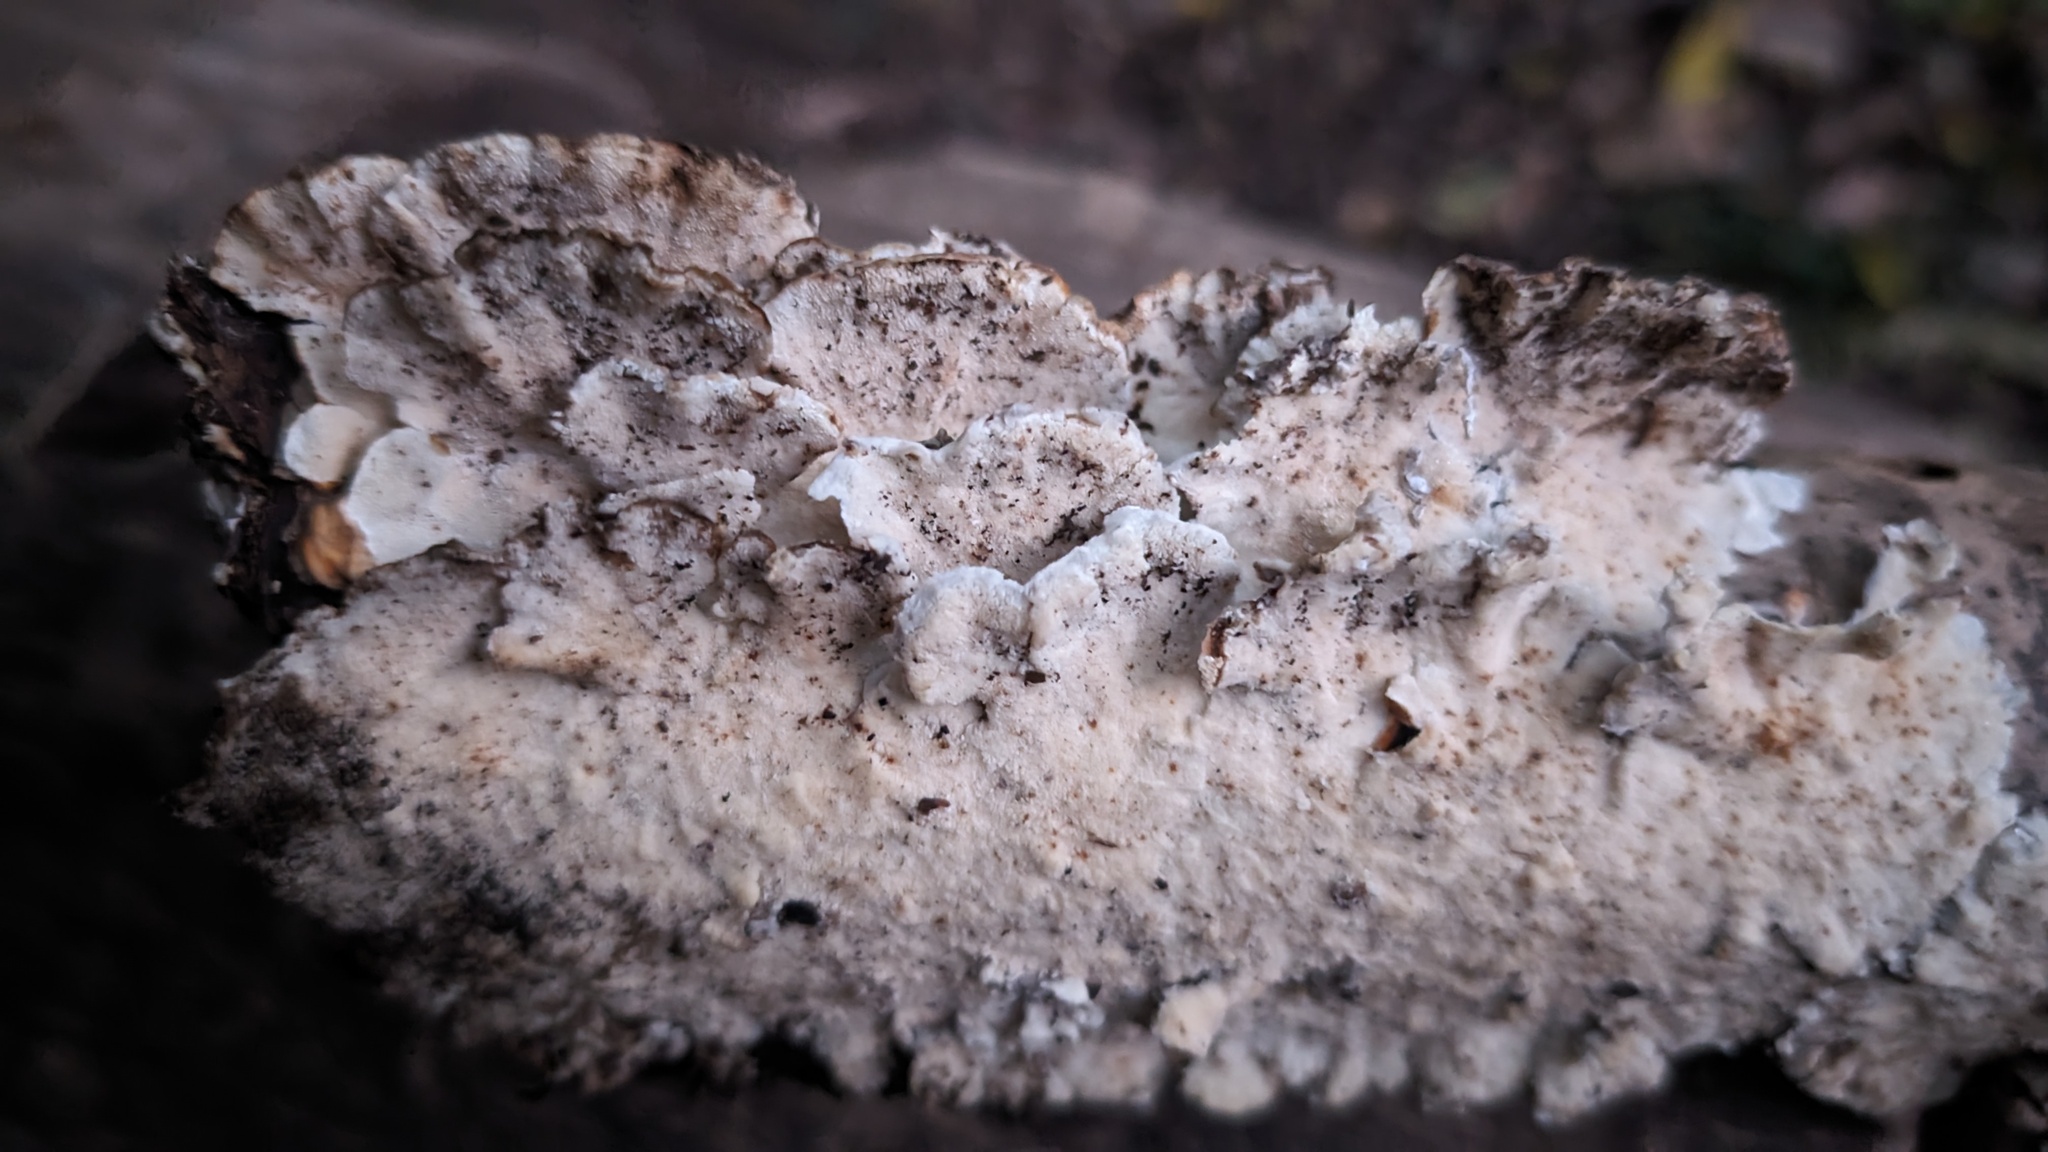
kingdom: Fungi
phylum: Basidiomycota
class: Agaricomycetes
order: Polyporales
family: Polyporaceae
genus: Trametes
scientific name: Trametes versicolor
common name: Turkeytail
